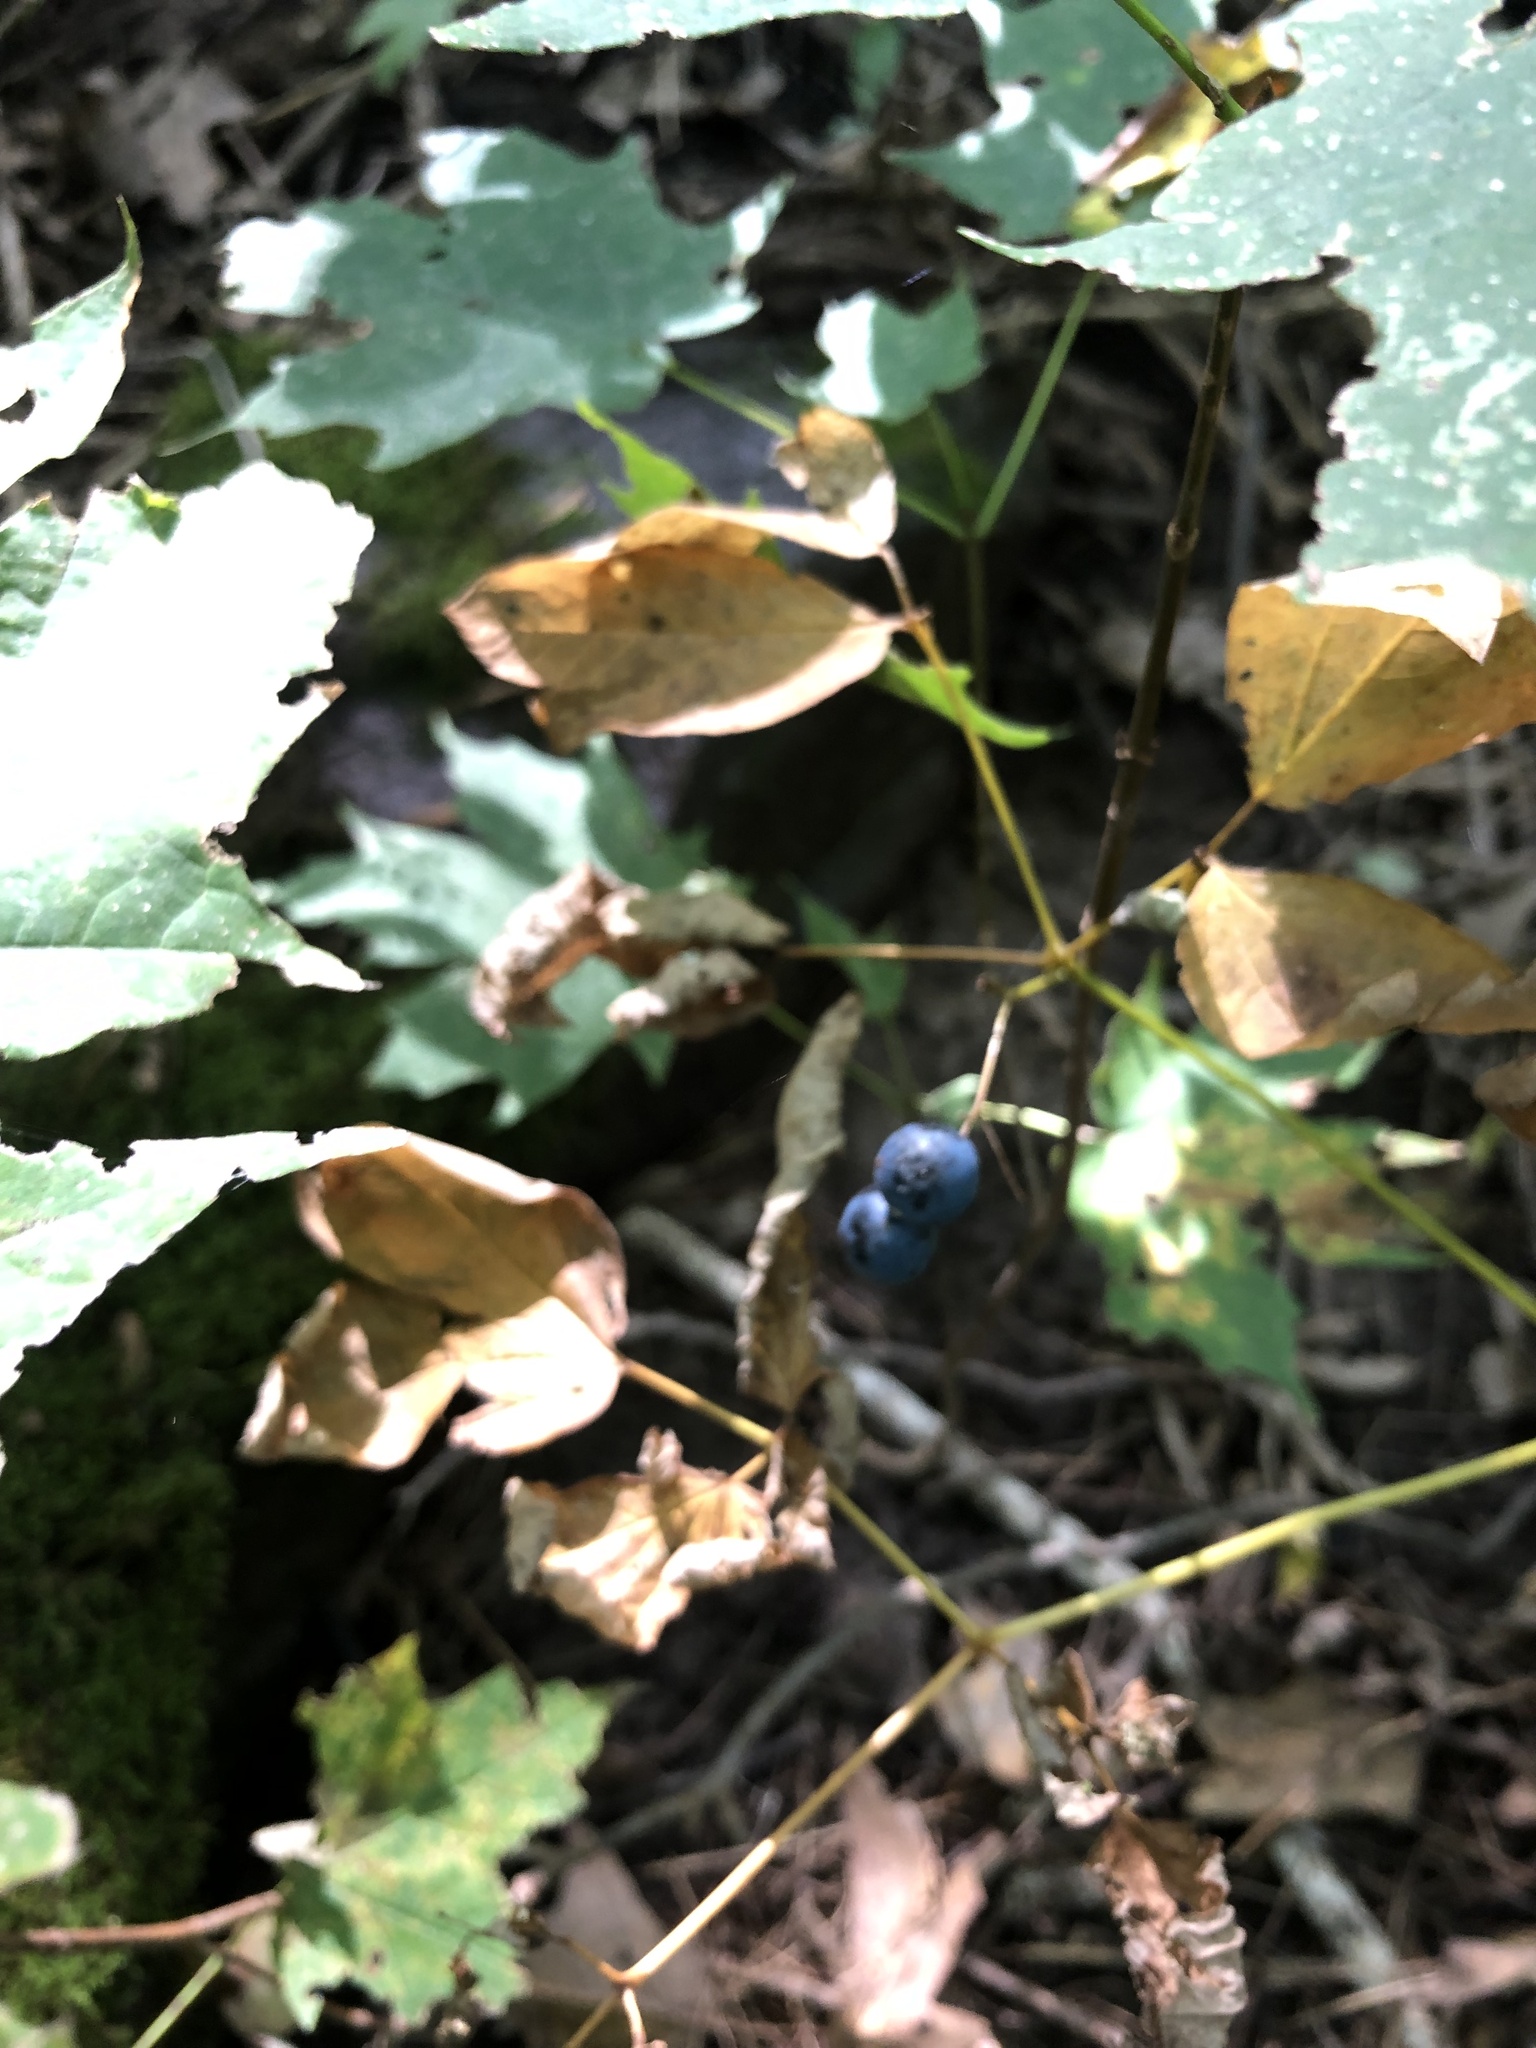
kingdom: Plantae
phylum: Tracheophyta
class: Magnoliopsida
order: Ranunculales
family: Berberidaceae
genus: Caulophyllum
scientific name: Caulophyllum thalictroides
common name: Blue cohosh
